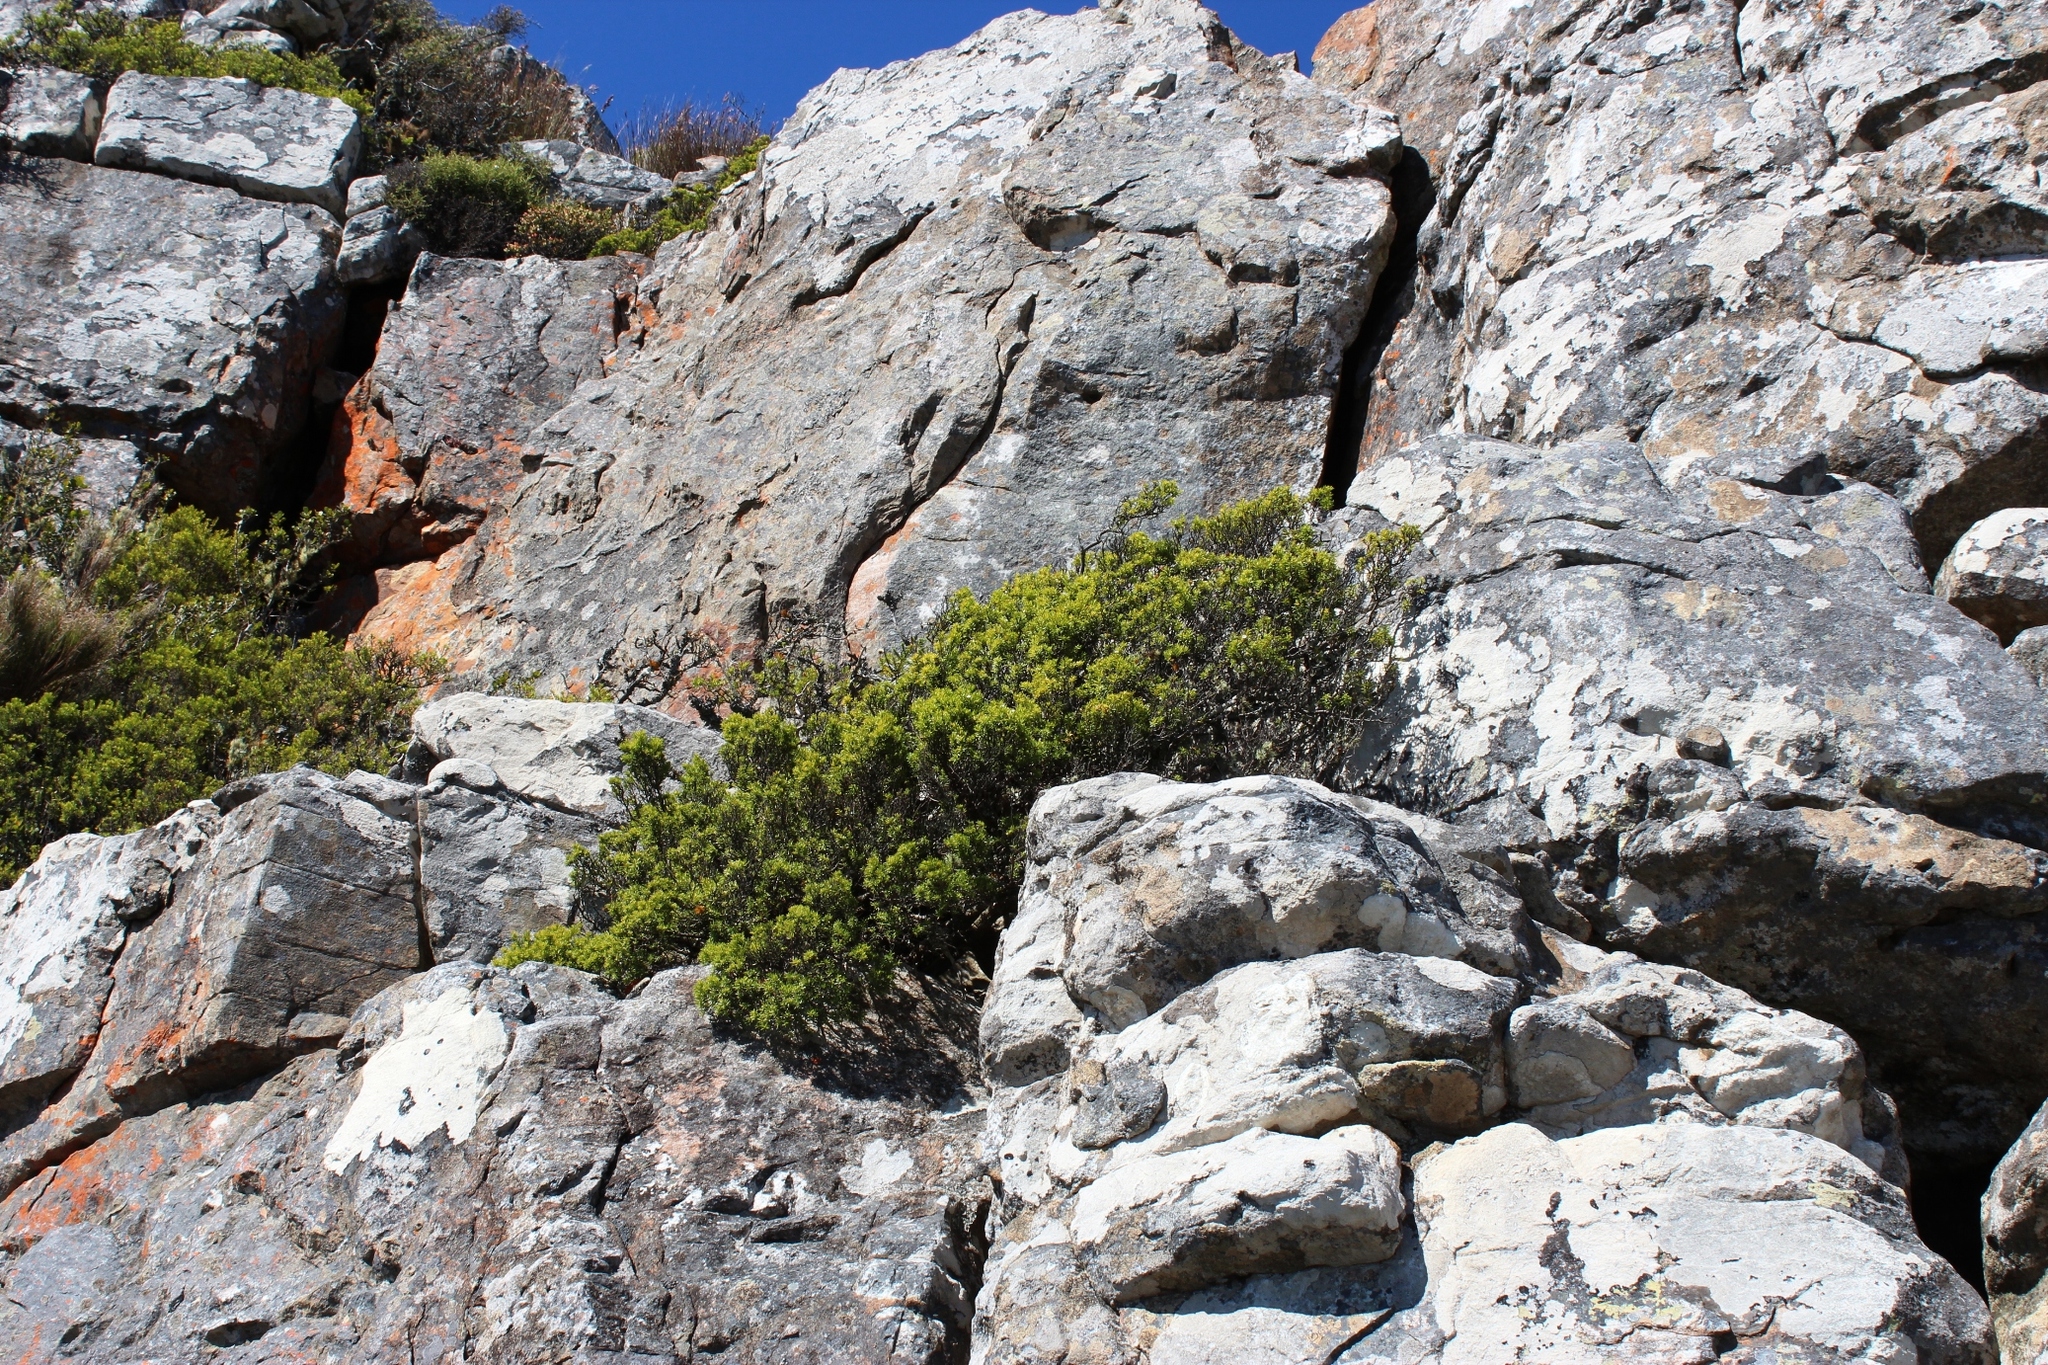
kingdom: Plantae
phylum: Tracheophyta
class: Magnoliopsida
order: Sapindales
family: Rutaceae
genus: Coleonema
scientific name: Coleonema album
